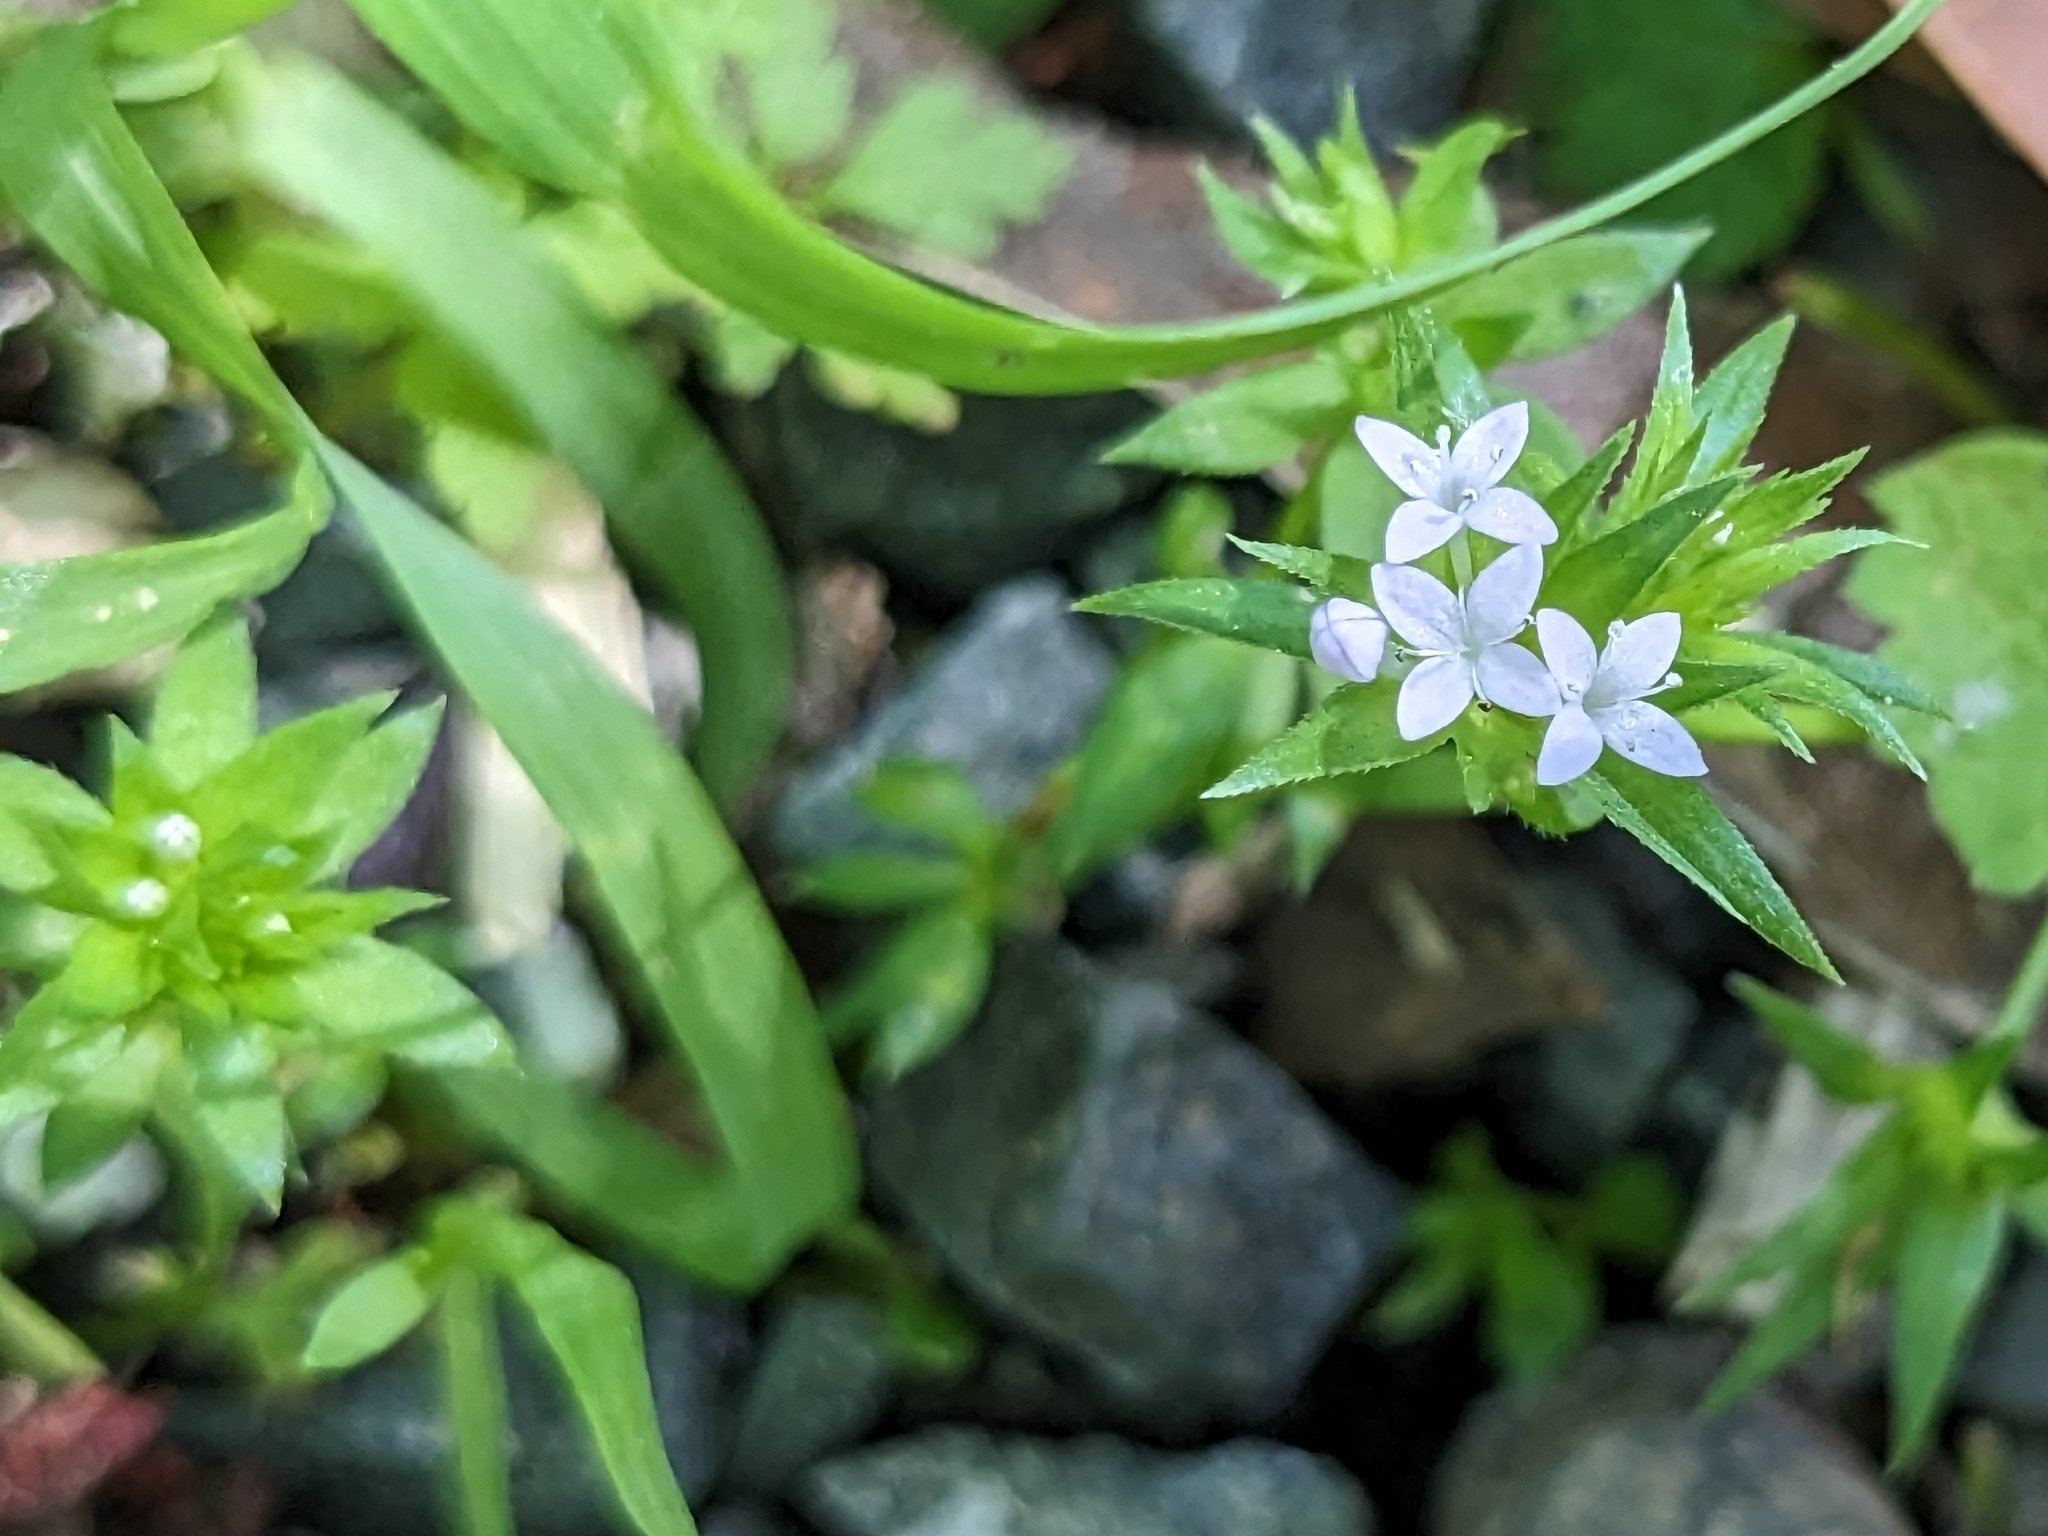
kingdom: Plantae
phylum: Tracheophyta
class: Magnoliopsida
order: Gentianales
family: Rubiaceae
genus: Sherardia
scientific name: Sherardia arvensis
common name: Field madder
